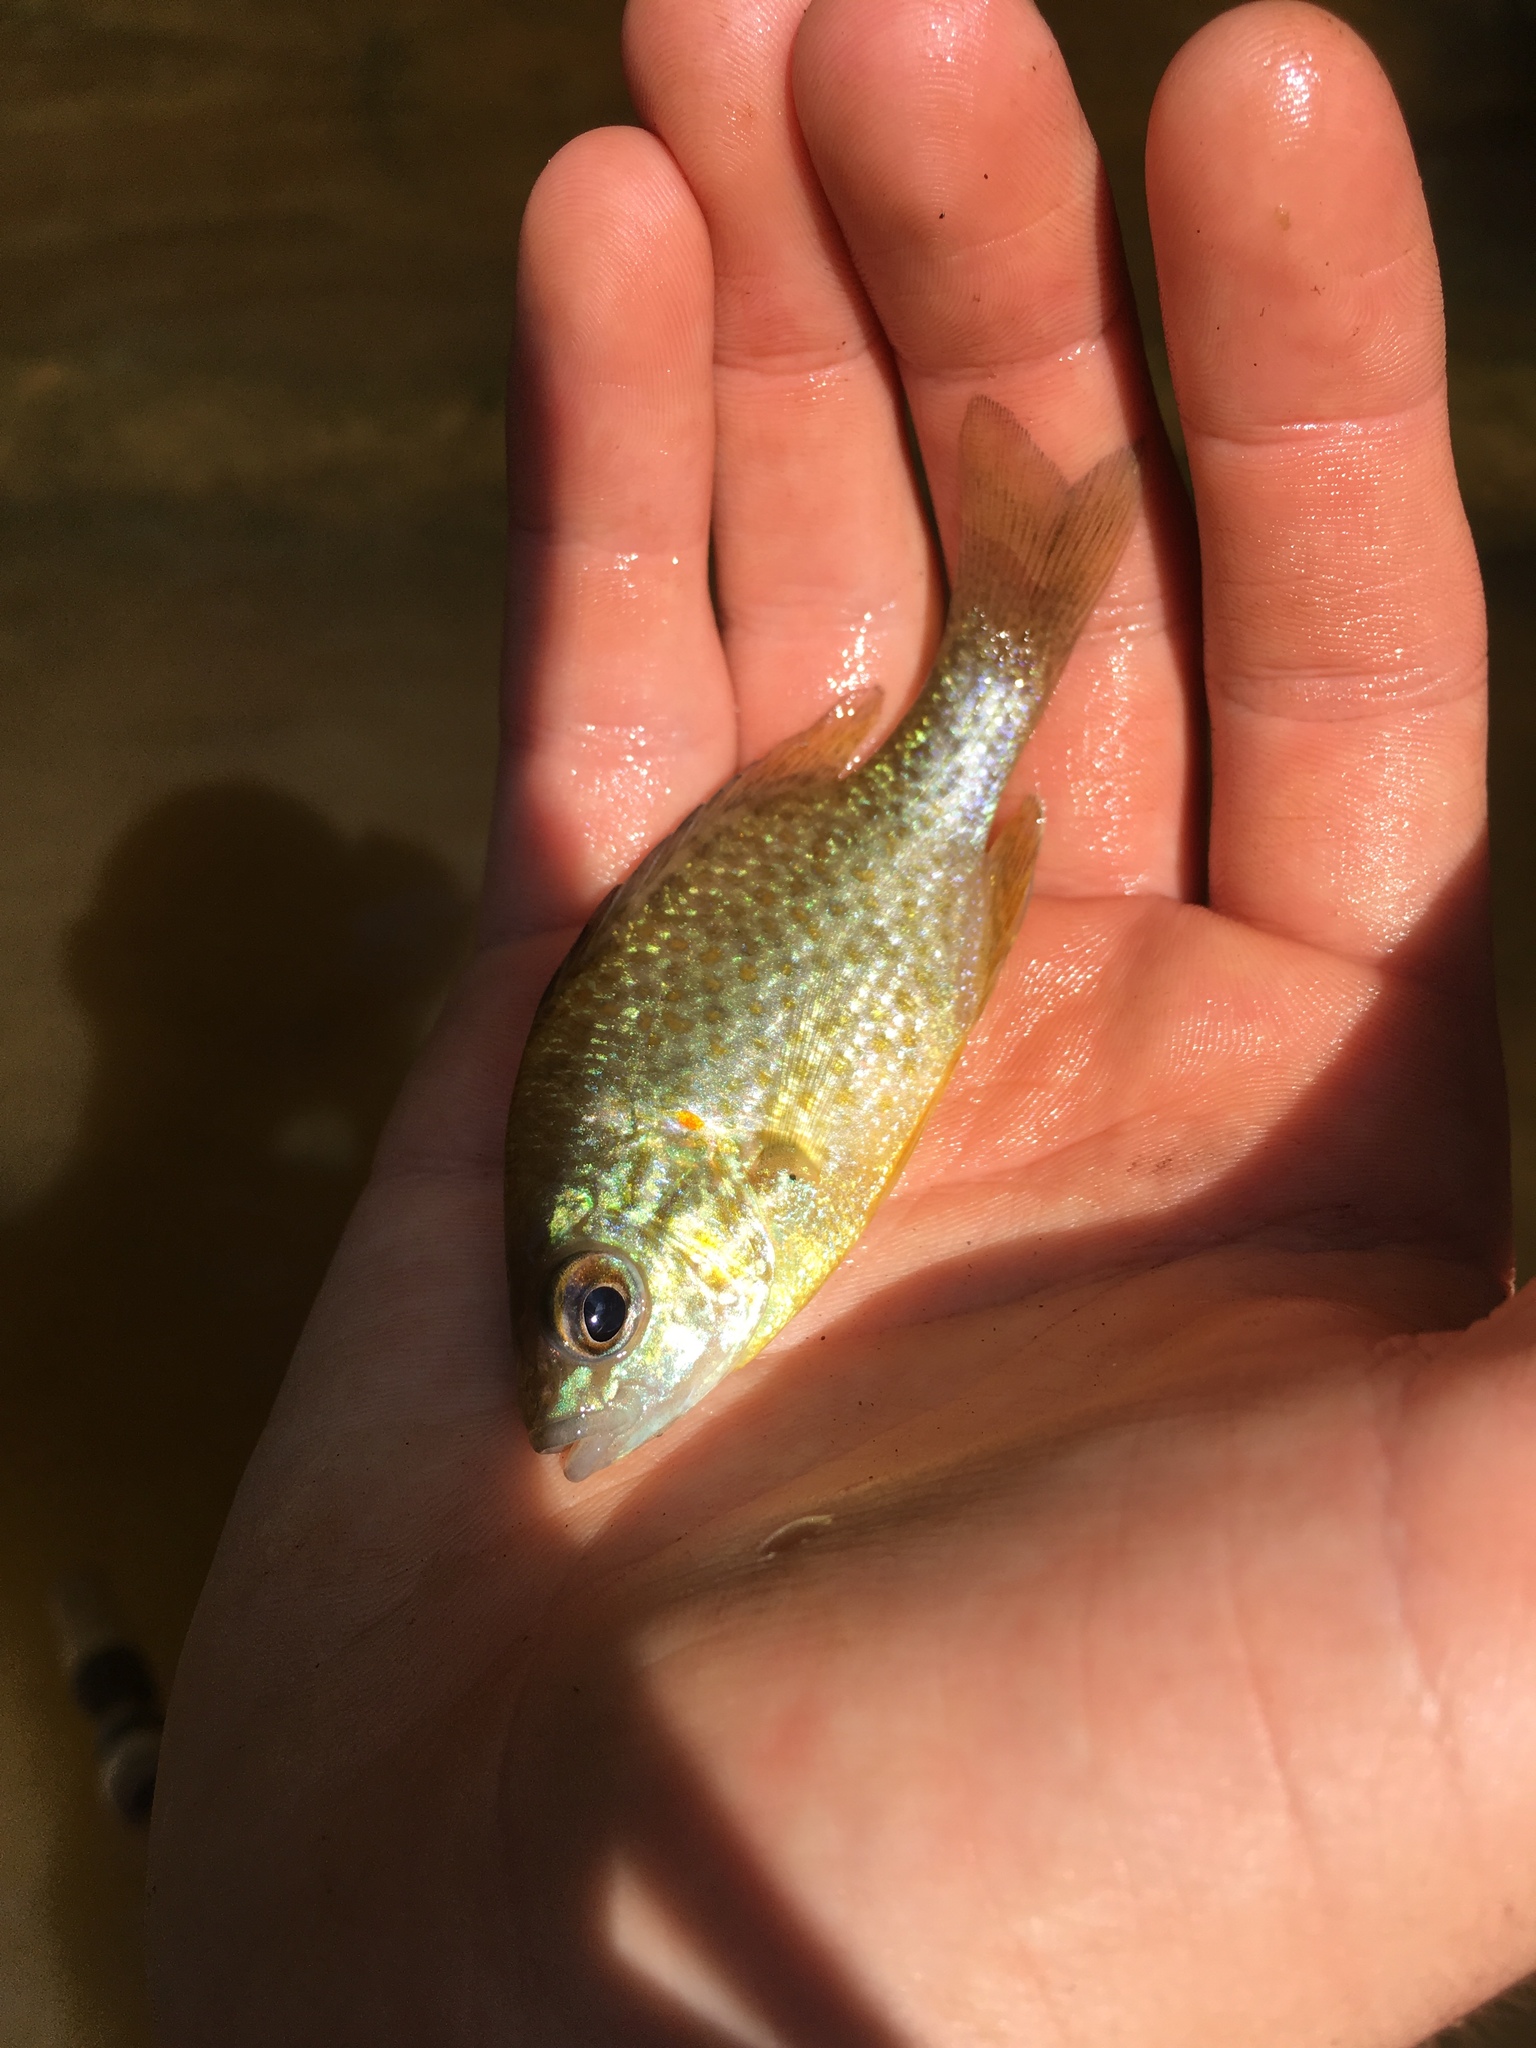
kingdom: Animalia
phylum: Chordata
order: Perciformes
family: Centrarchidae
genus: Lepomis
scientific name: Lepomis gibbosus
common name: Pumpkinseed
